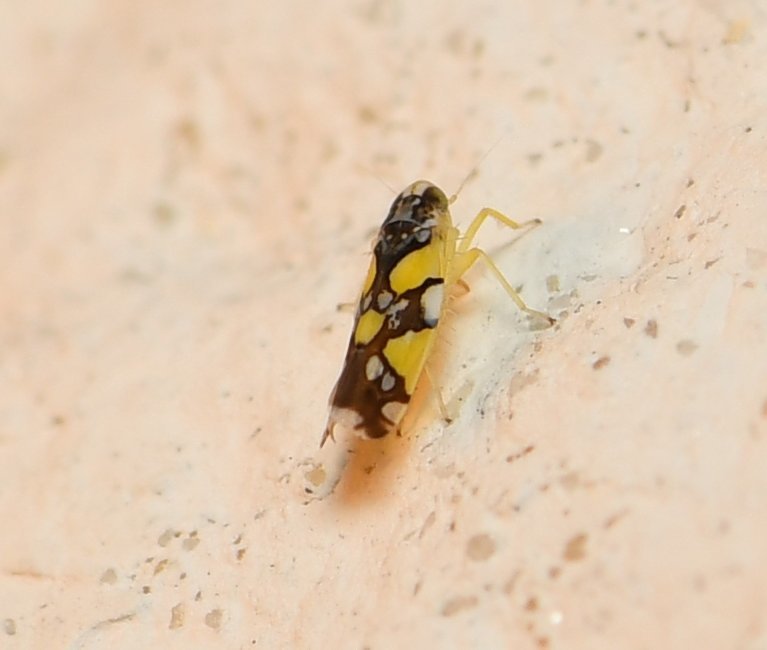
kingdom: Animalia
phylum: Arthropoda
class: Insecta
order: Hemiptera
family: Cicadellidae
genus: Protalebrella
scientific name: Protalebrella brasiliensis
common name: Brasilian leafhopper
